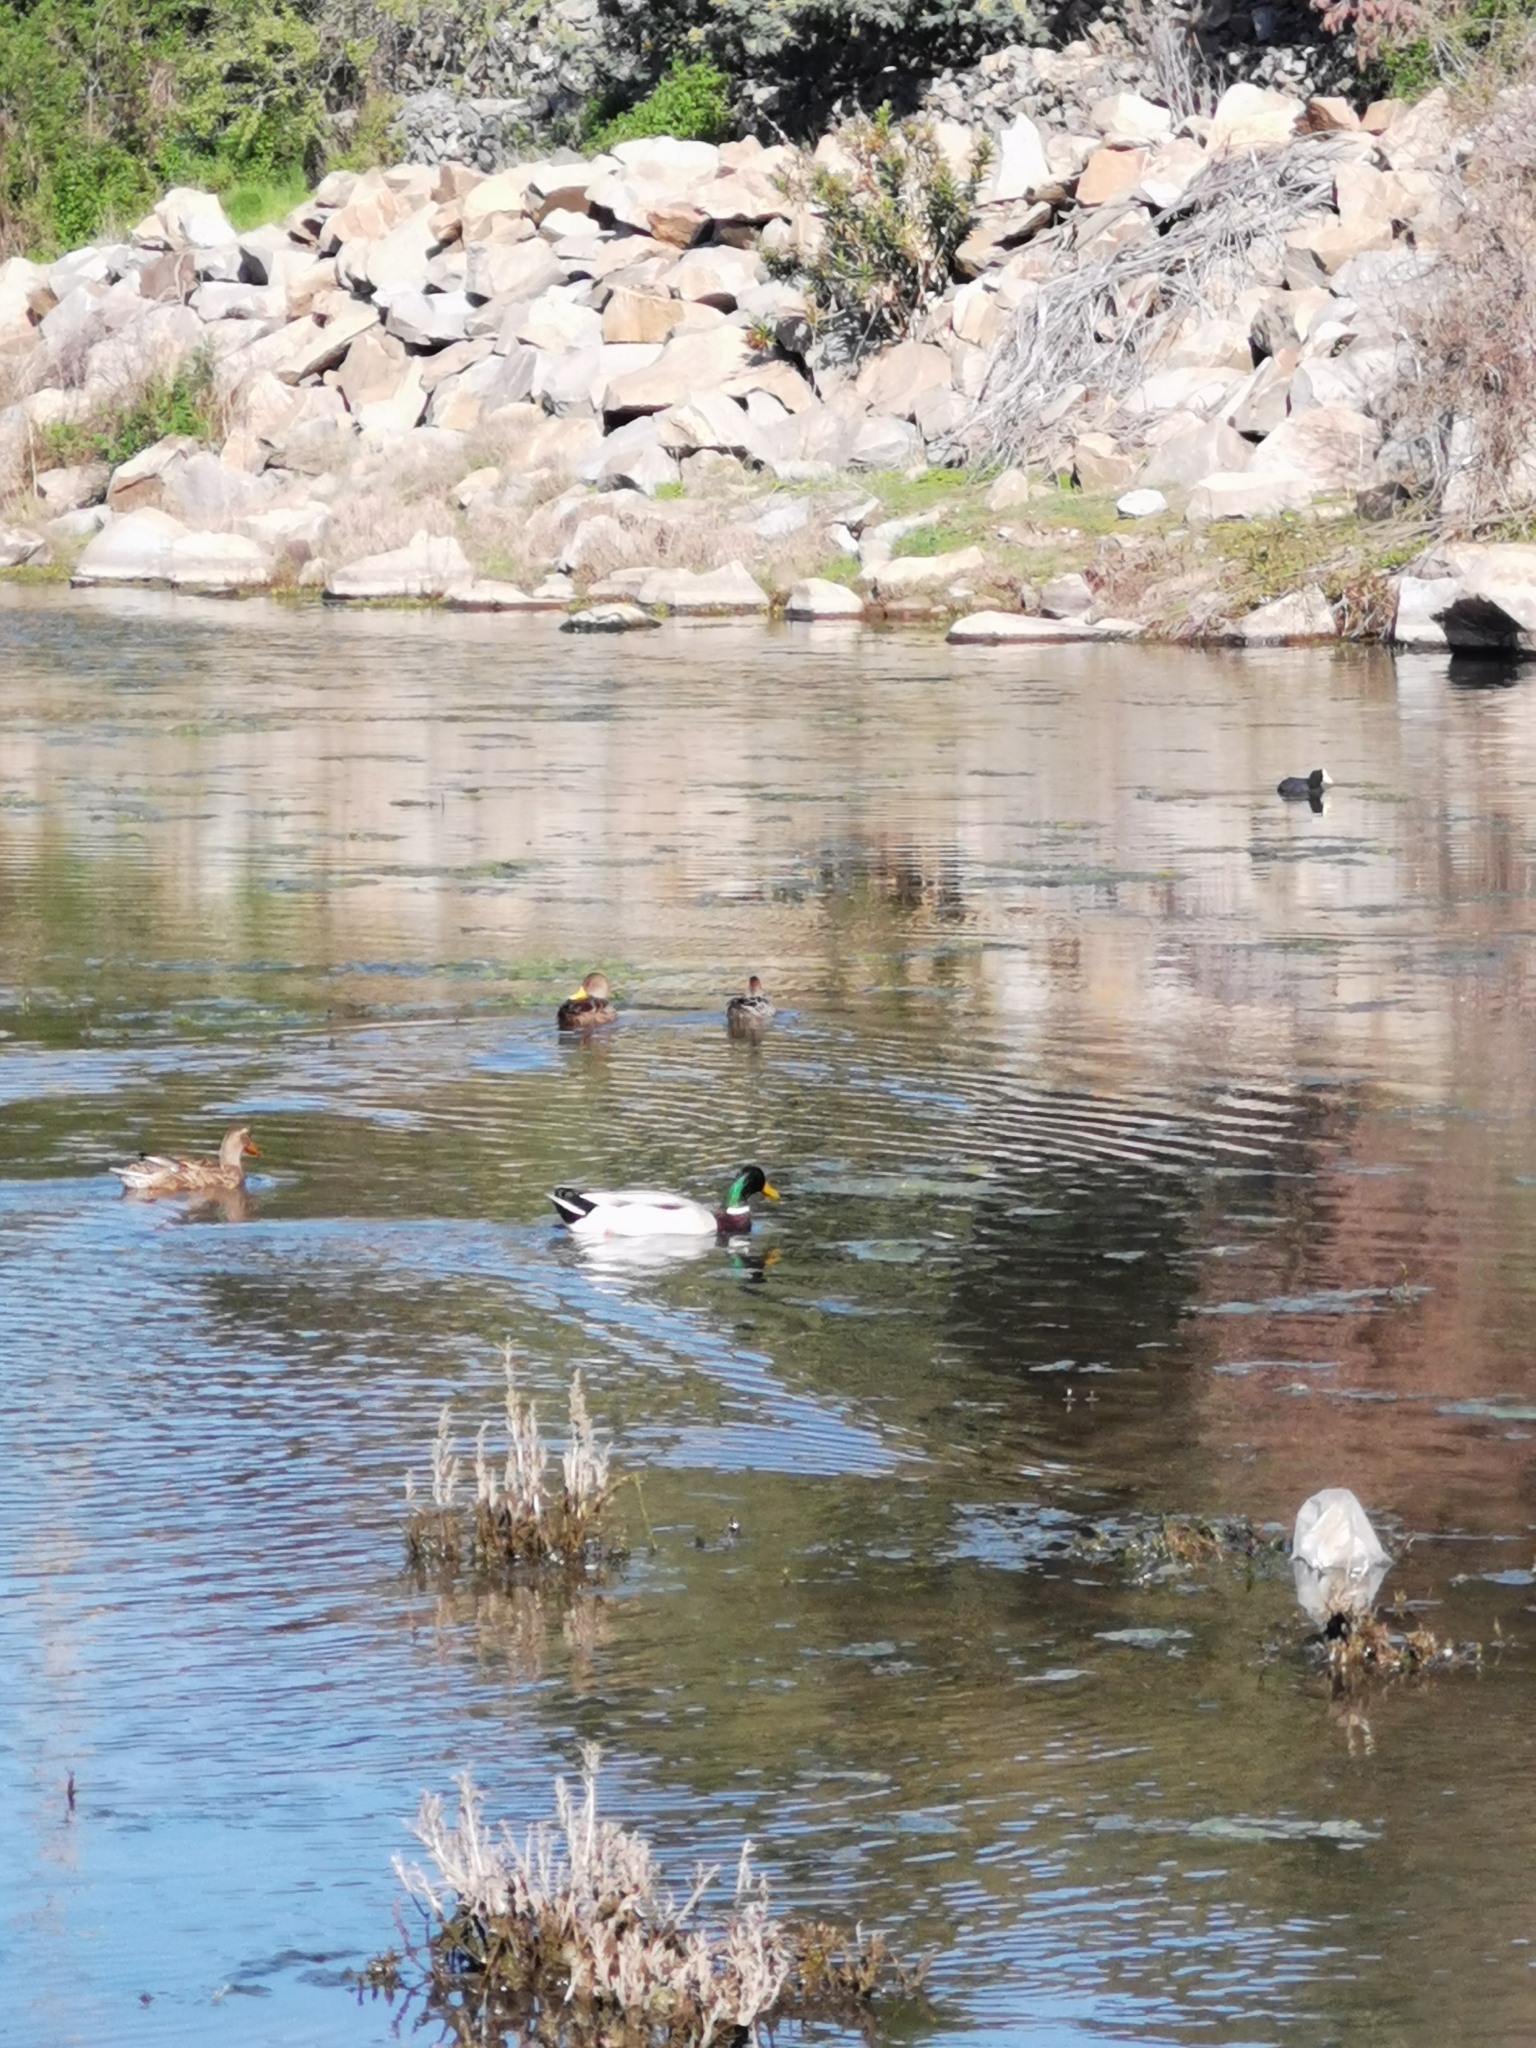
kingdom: Animalia
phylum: Chordata
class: Aves
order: Anseriformes
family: Anatidae
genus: Anas
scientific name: Anas platyrhynchos
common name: Mallard
